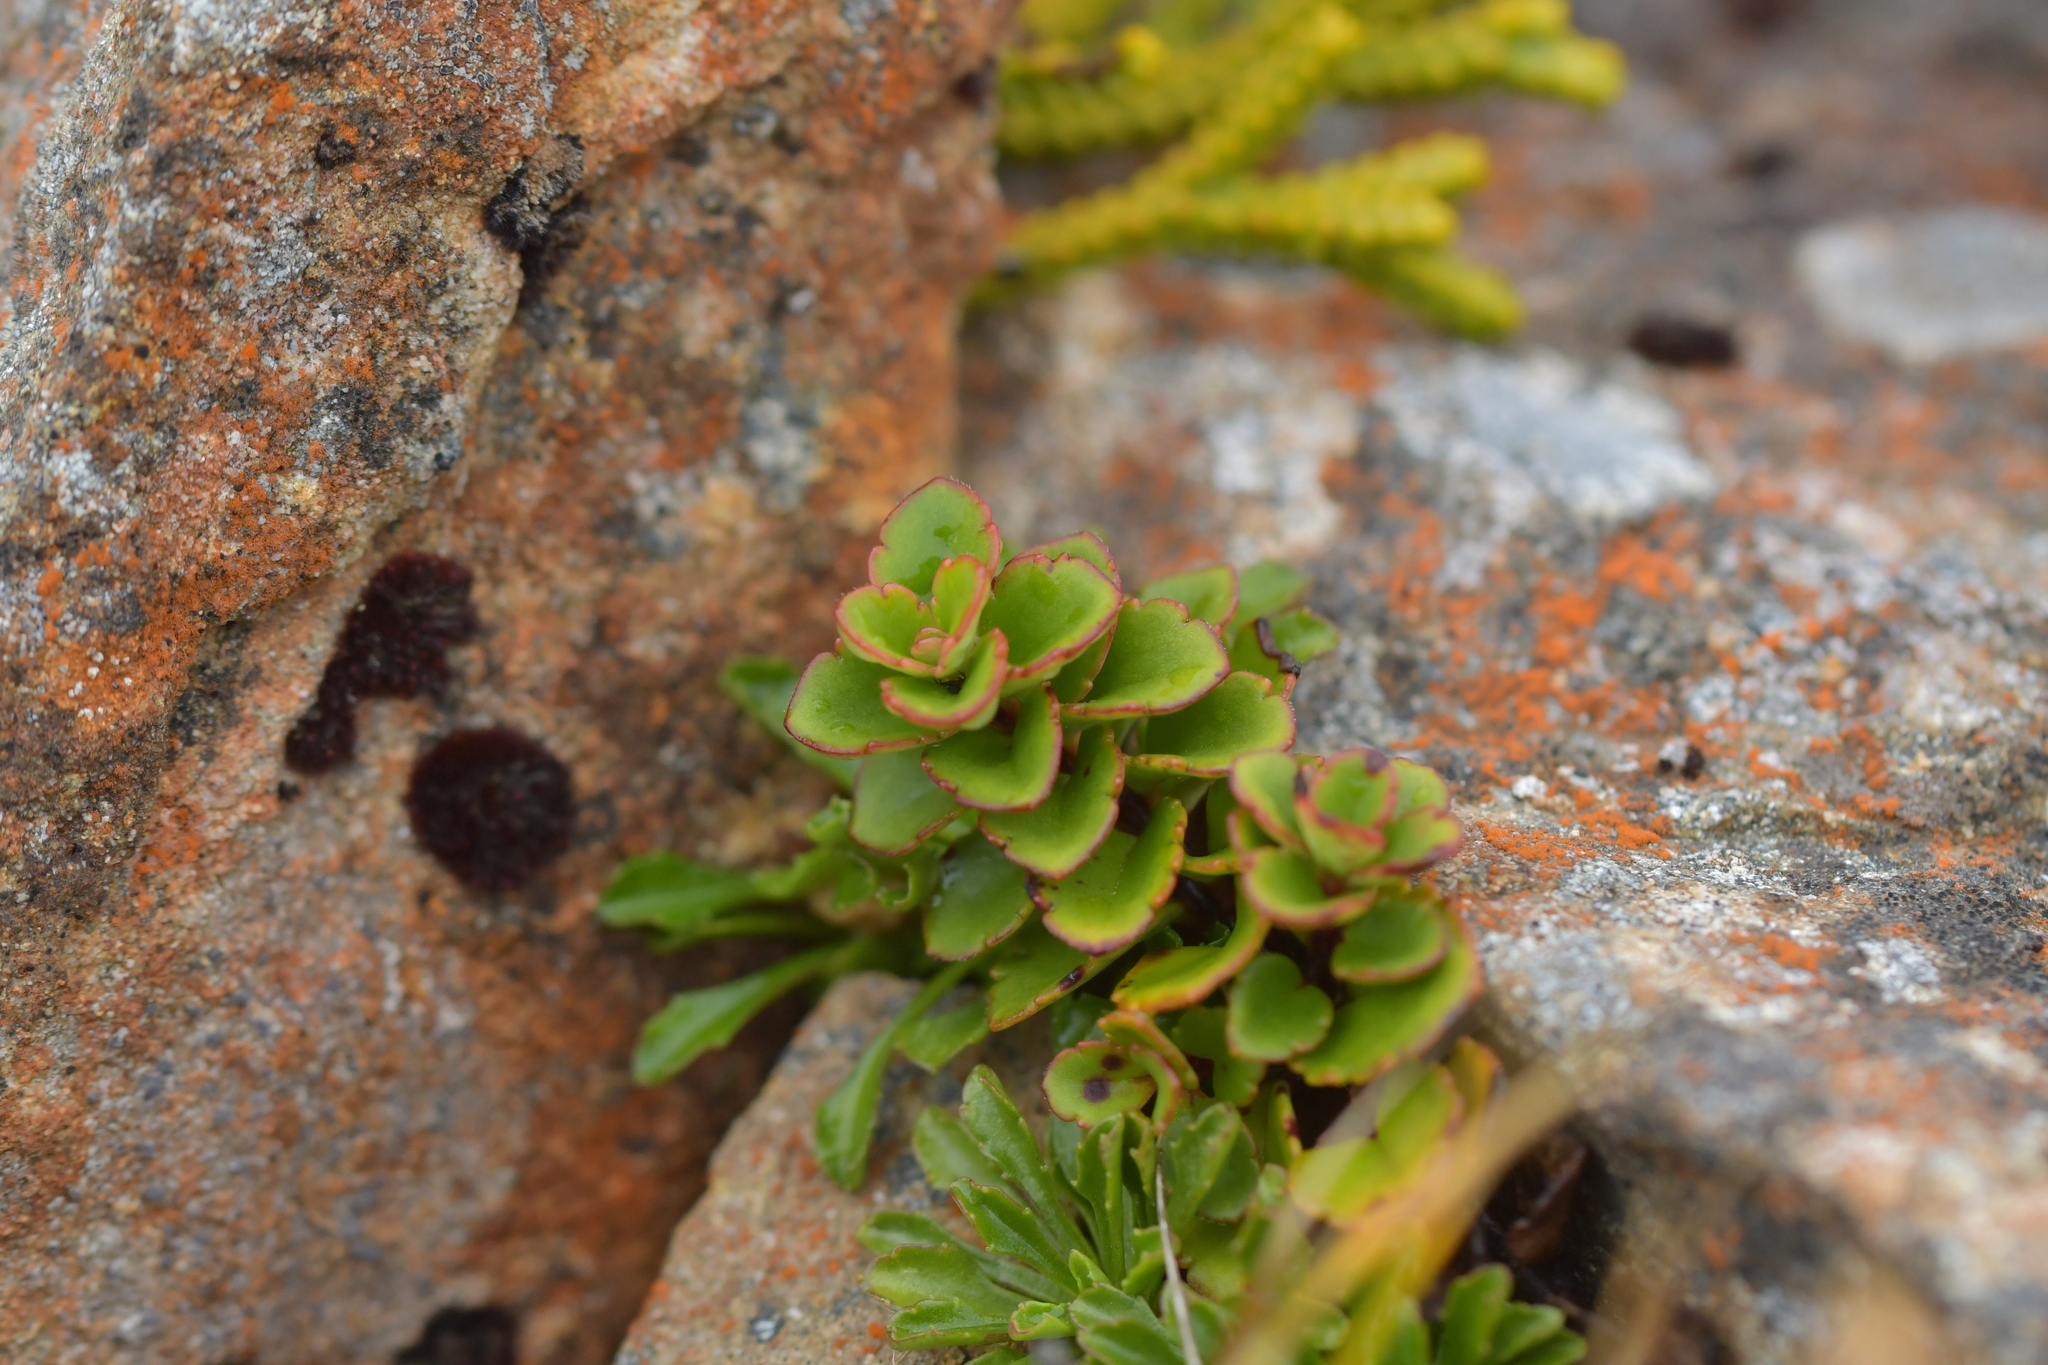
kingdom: Plantae
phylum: Tracheophyta
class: Magnoliopsida
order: Lamiales
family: Plantaginaceae
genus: Veronica
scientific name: Veronica hookeriana
